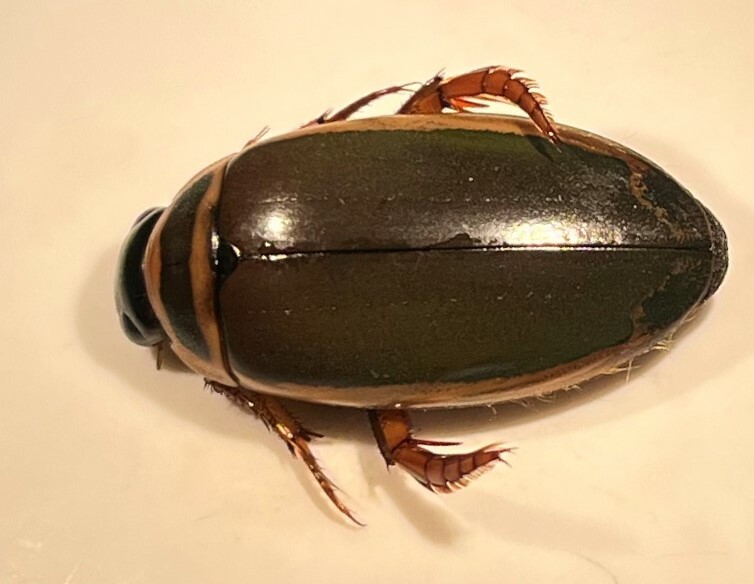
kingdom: Animalia
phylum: Arthropoda
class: Insecta
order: Coleoptera
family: Dytiscidae
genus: Dytiscus
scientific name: Dytiscus habilis
